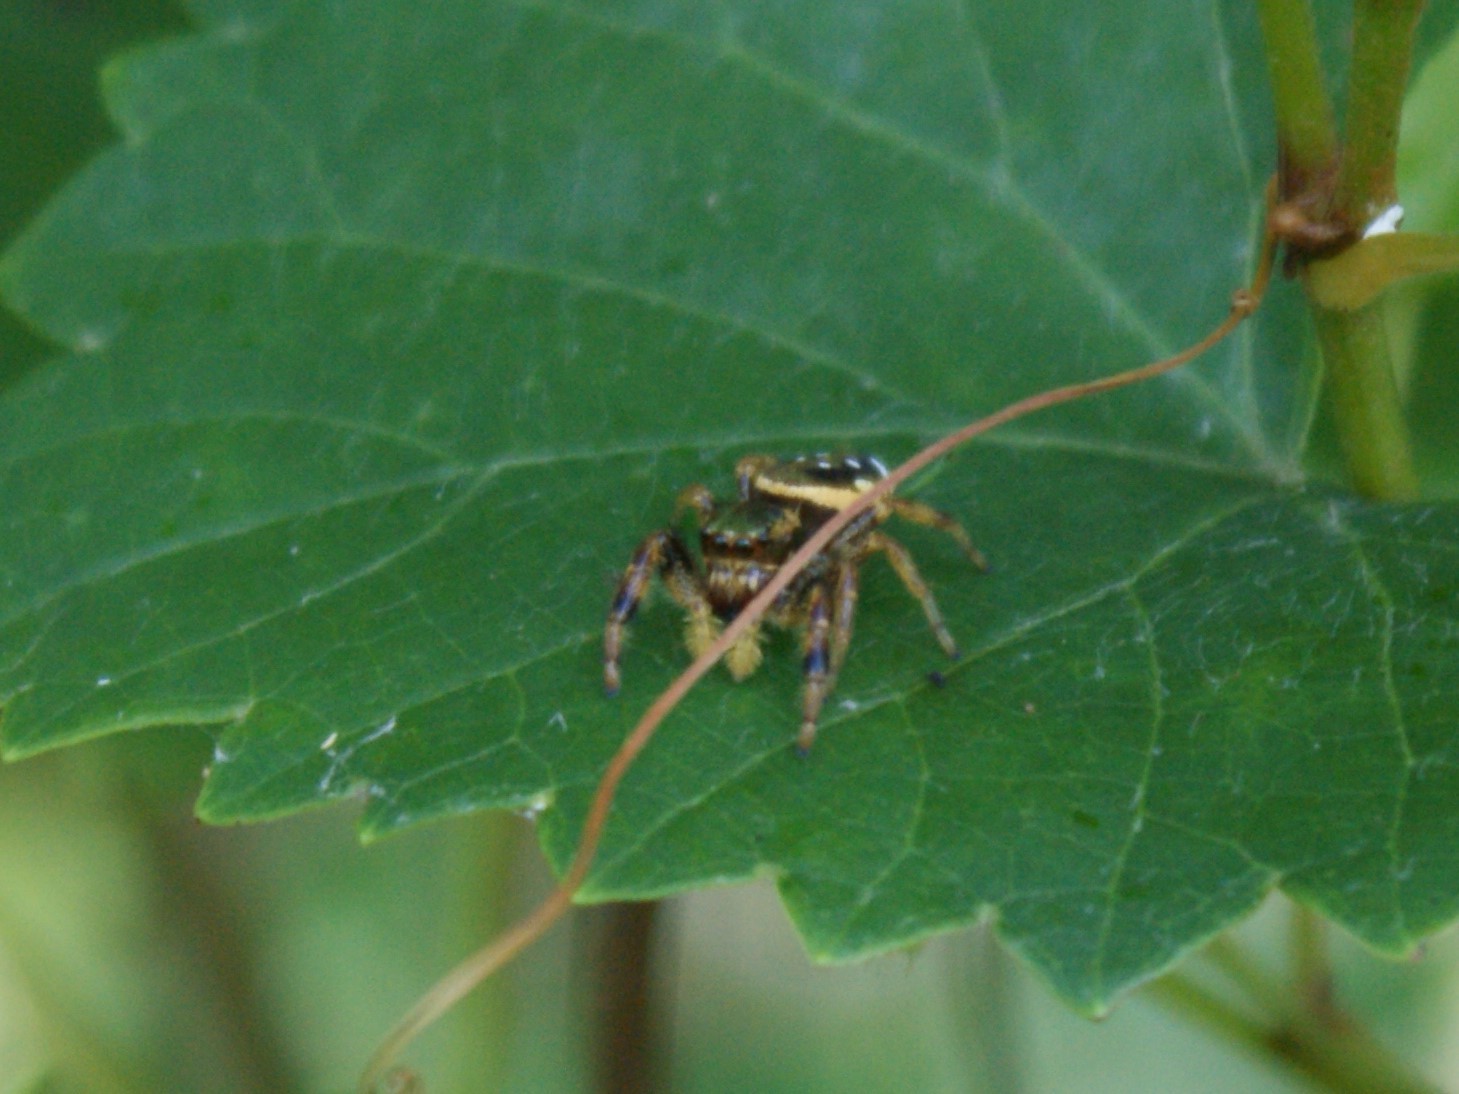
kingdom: Animalia
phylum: Arthropoda
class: Arachnida
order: Araneae
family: Salticidae
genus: Paraphidippus
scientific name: Paraphidippus aurantius
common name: Jumping spiders
